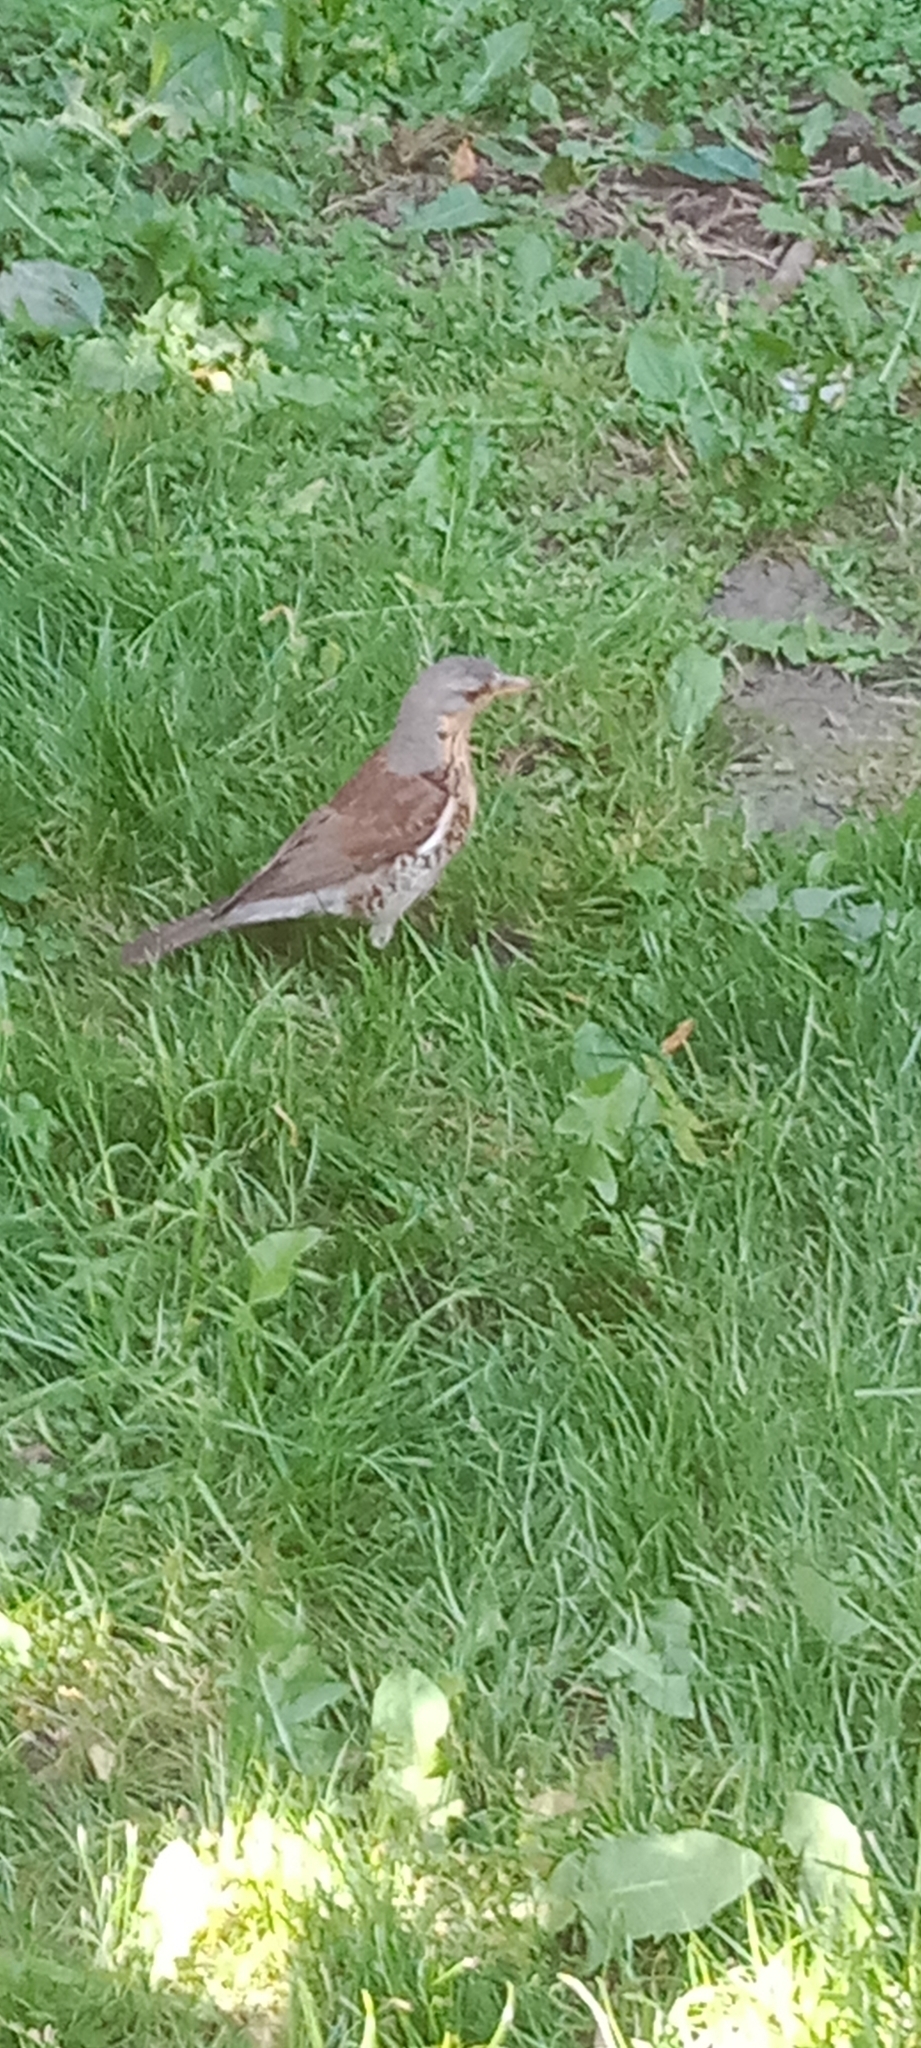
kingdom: Animalia
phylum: Chordata
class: Aves
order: Passeriformes
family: Turdidae
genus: Turdus
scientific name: Turdus pilaris
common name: Fieldfare
